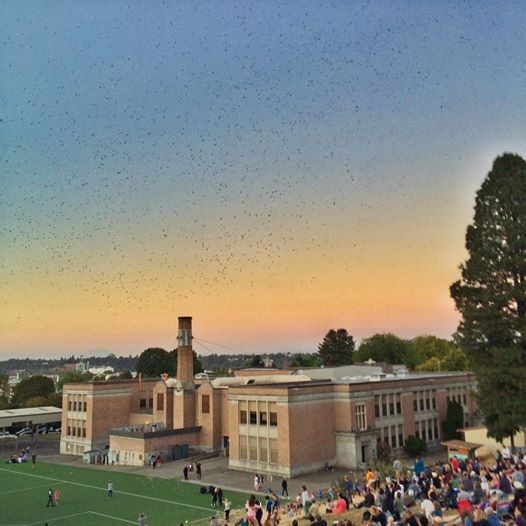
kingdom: Animalia
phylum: Chordata
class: Aves
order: Apodiformes
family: Apodidae
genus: Chaetura
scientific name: Chaetura vauxi
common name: Vaux's swift
